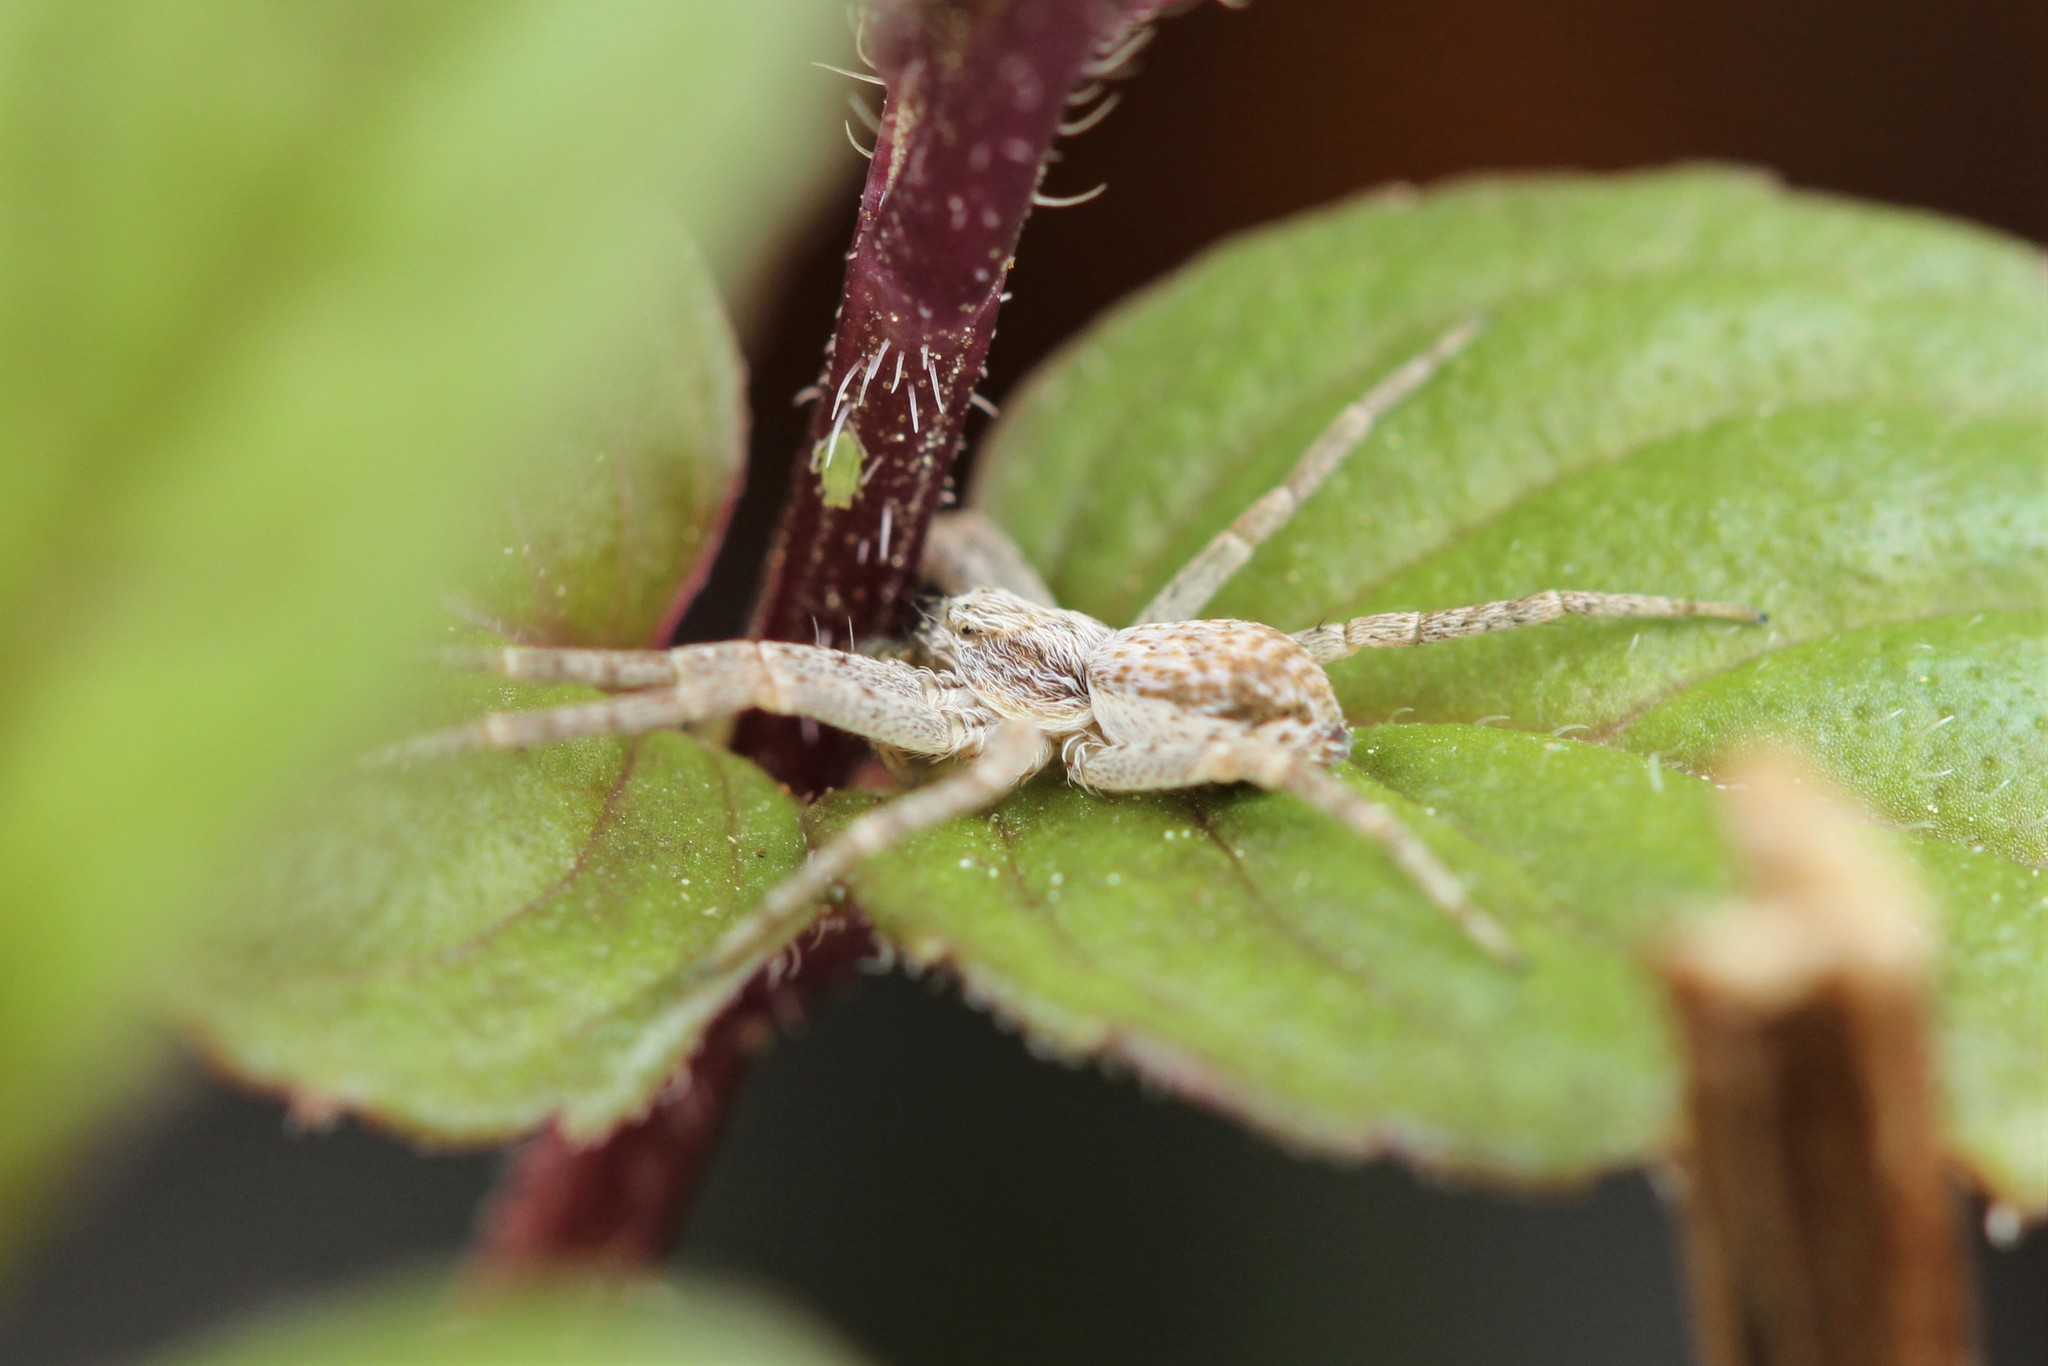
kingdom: Animalia
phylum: Arthropoda
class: Arachnida
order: Araneae
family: Philodromidae
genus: Philodromus
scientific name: Philodromus dispar
